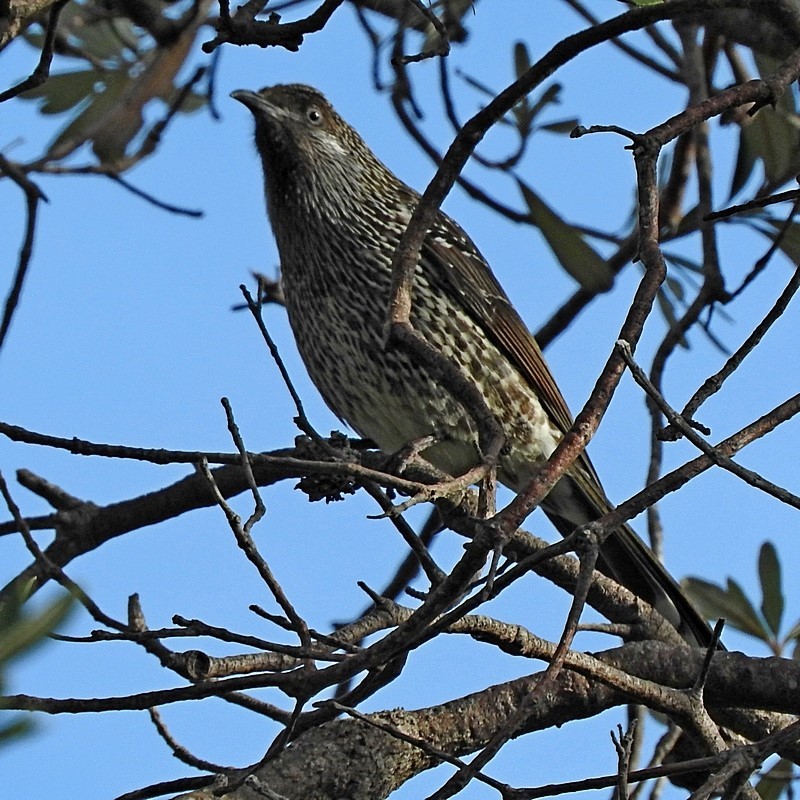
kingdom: Animalia
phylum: Chordata
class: Aves
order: Passeriformes
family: Meliphagidae
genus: Anthochaera
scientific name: Anthochaera chrysoptera
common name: Little wattlebird
